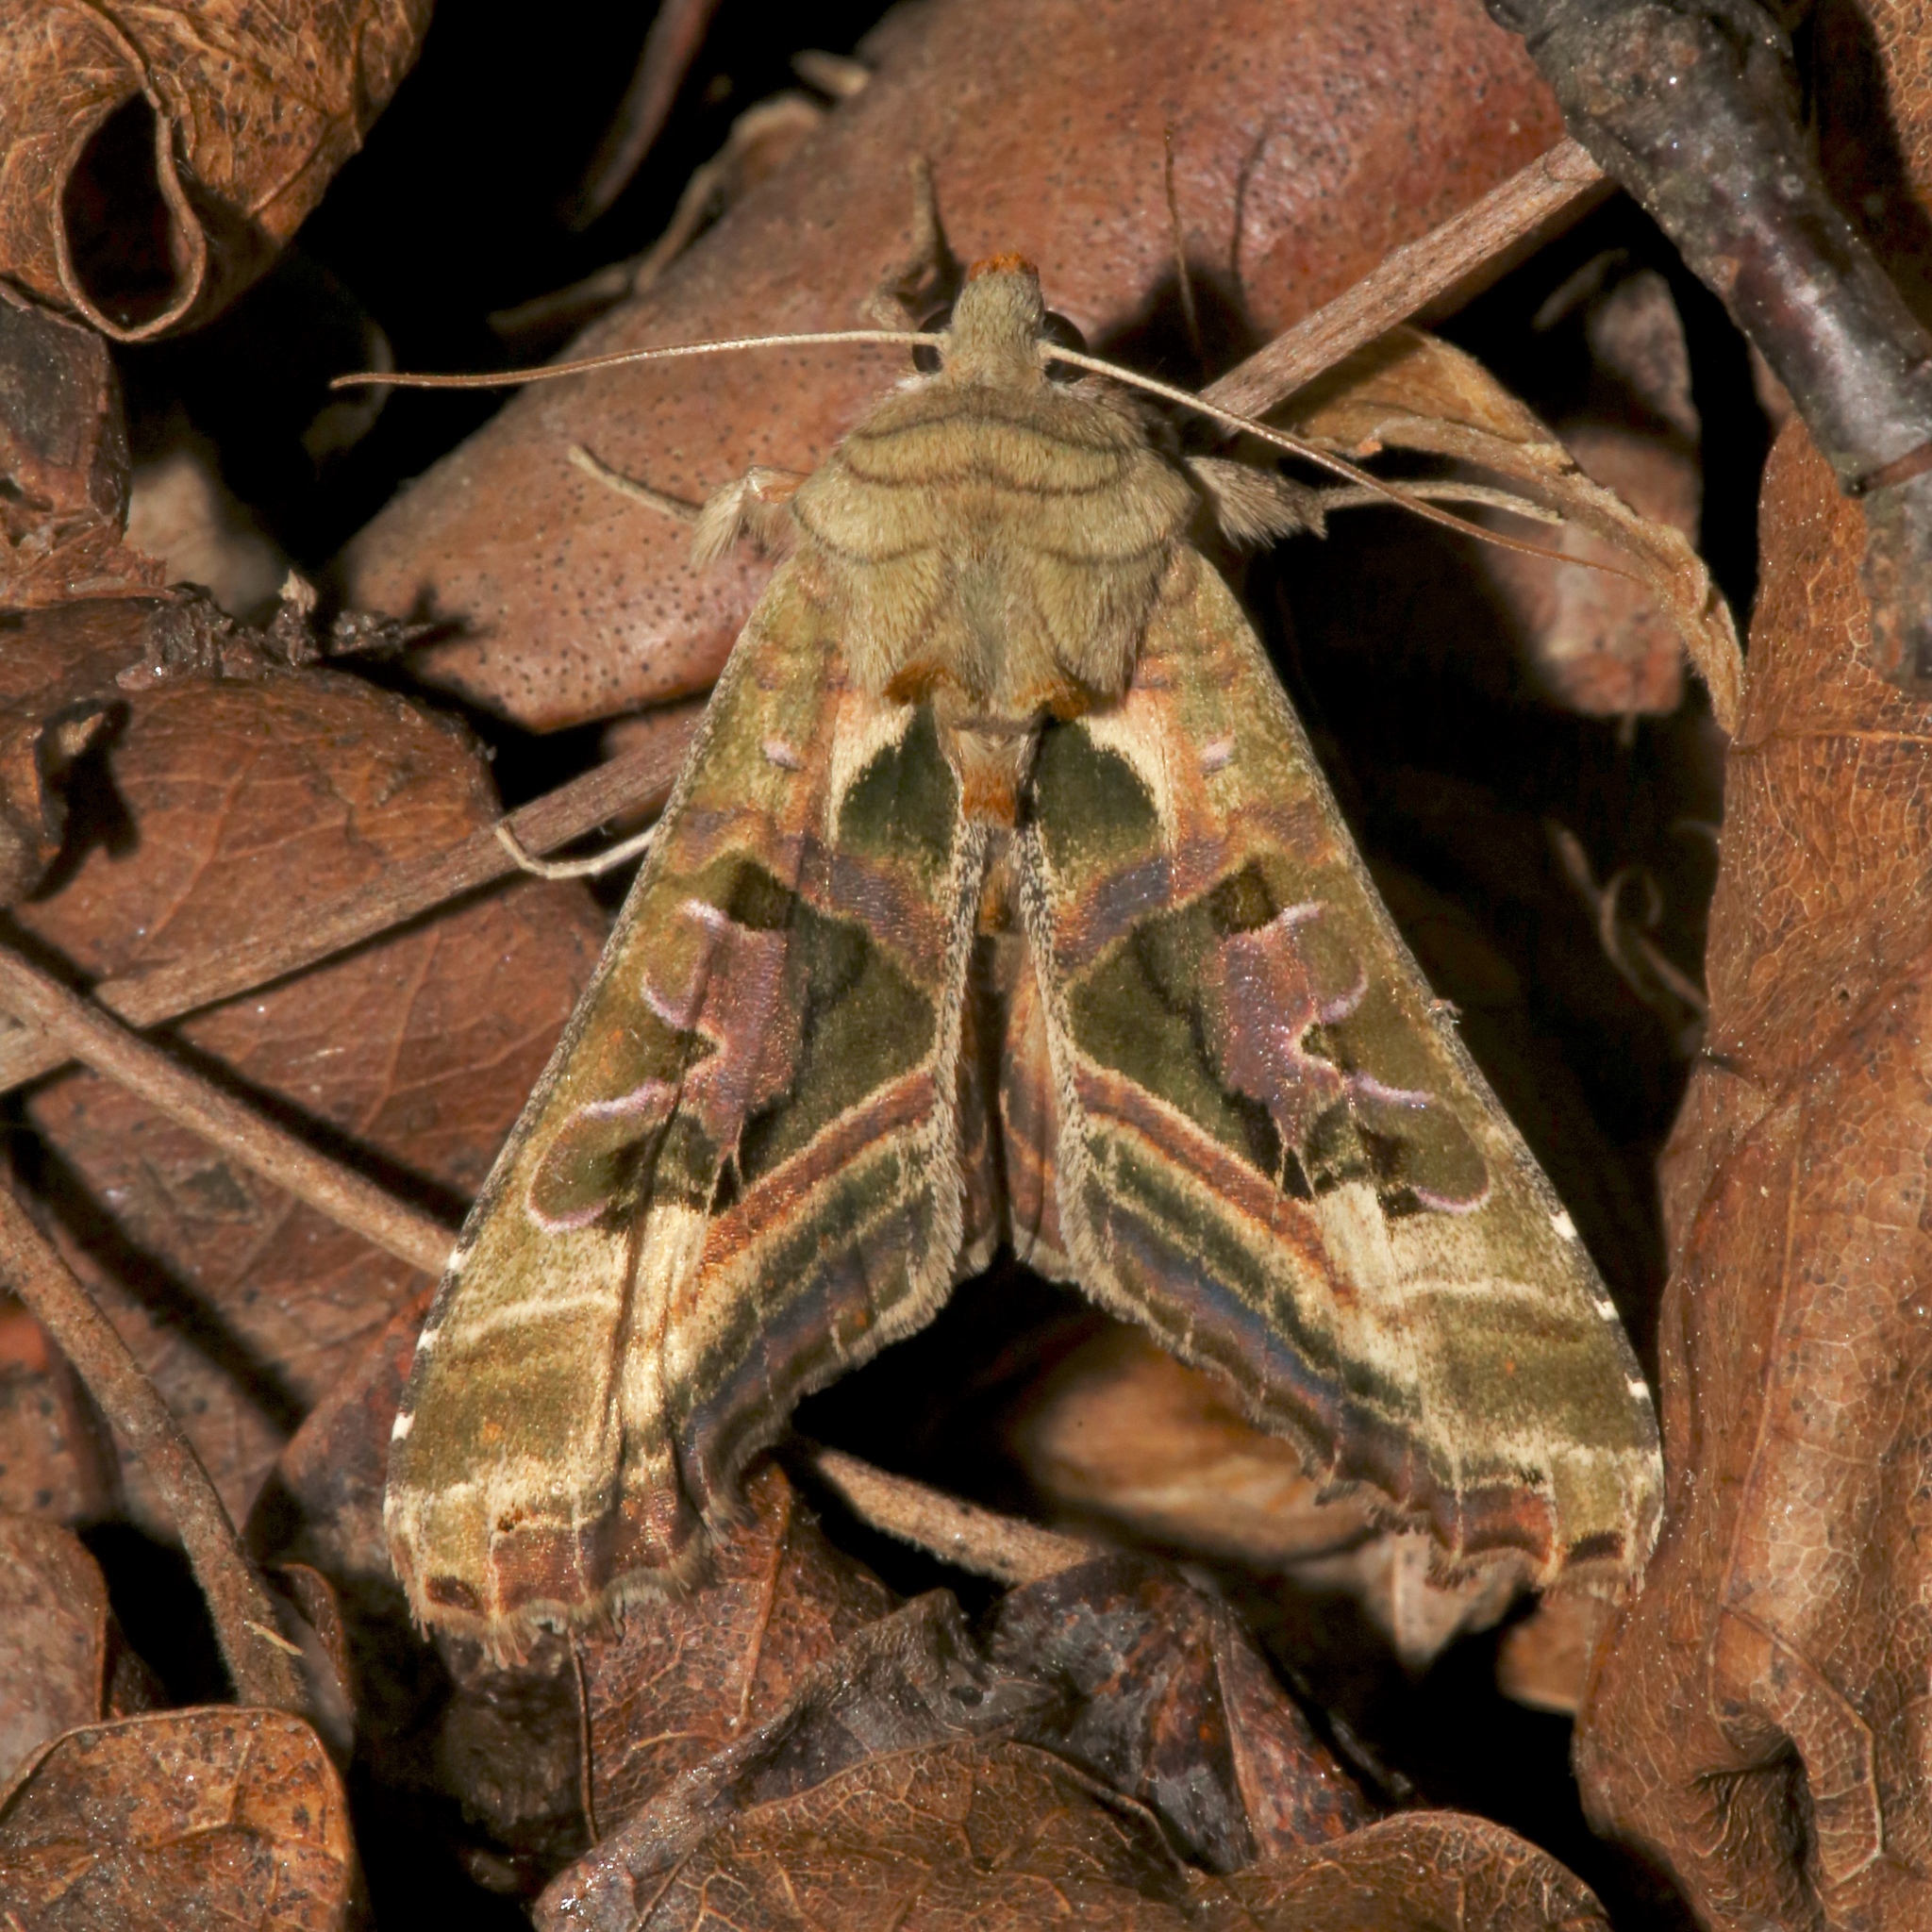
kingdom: Animalia
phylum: Arthropoda
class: Insecta
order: Lepidoptera
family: Noctuidae
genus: Phlogophora
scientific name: Phlogophora iris
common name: Olive angle shades
